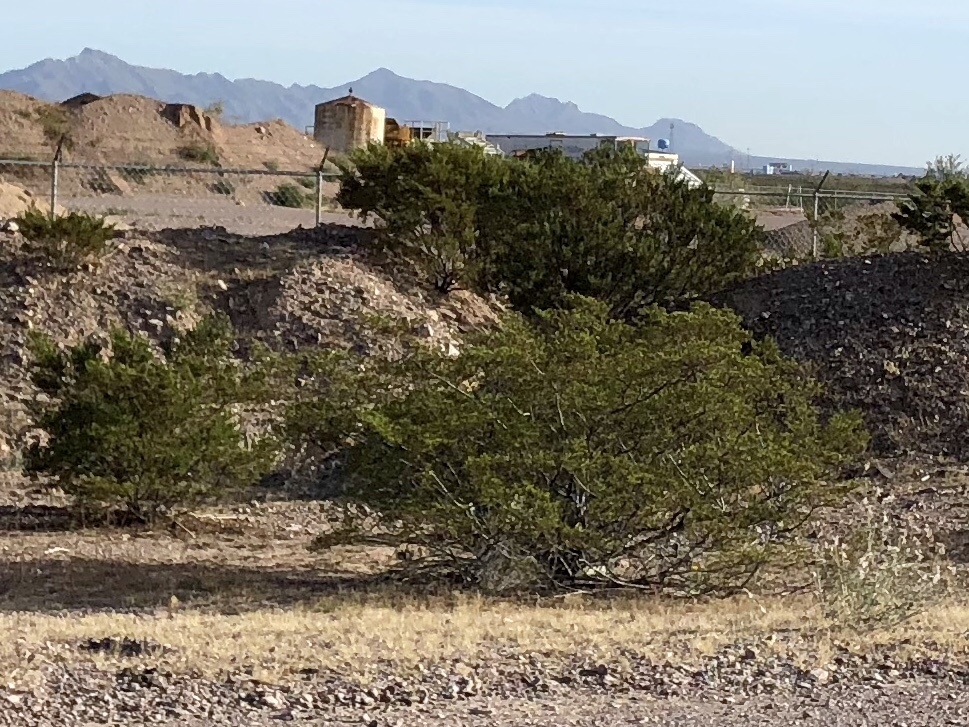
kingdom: Plantae
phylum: Tracheophyta
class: Magnoliopsida
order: Zygophyllales
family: Zygophyllaceae
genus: Larrea
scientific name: Larrea tridentata
